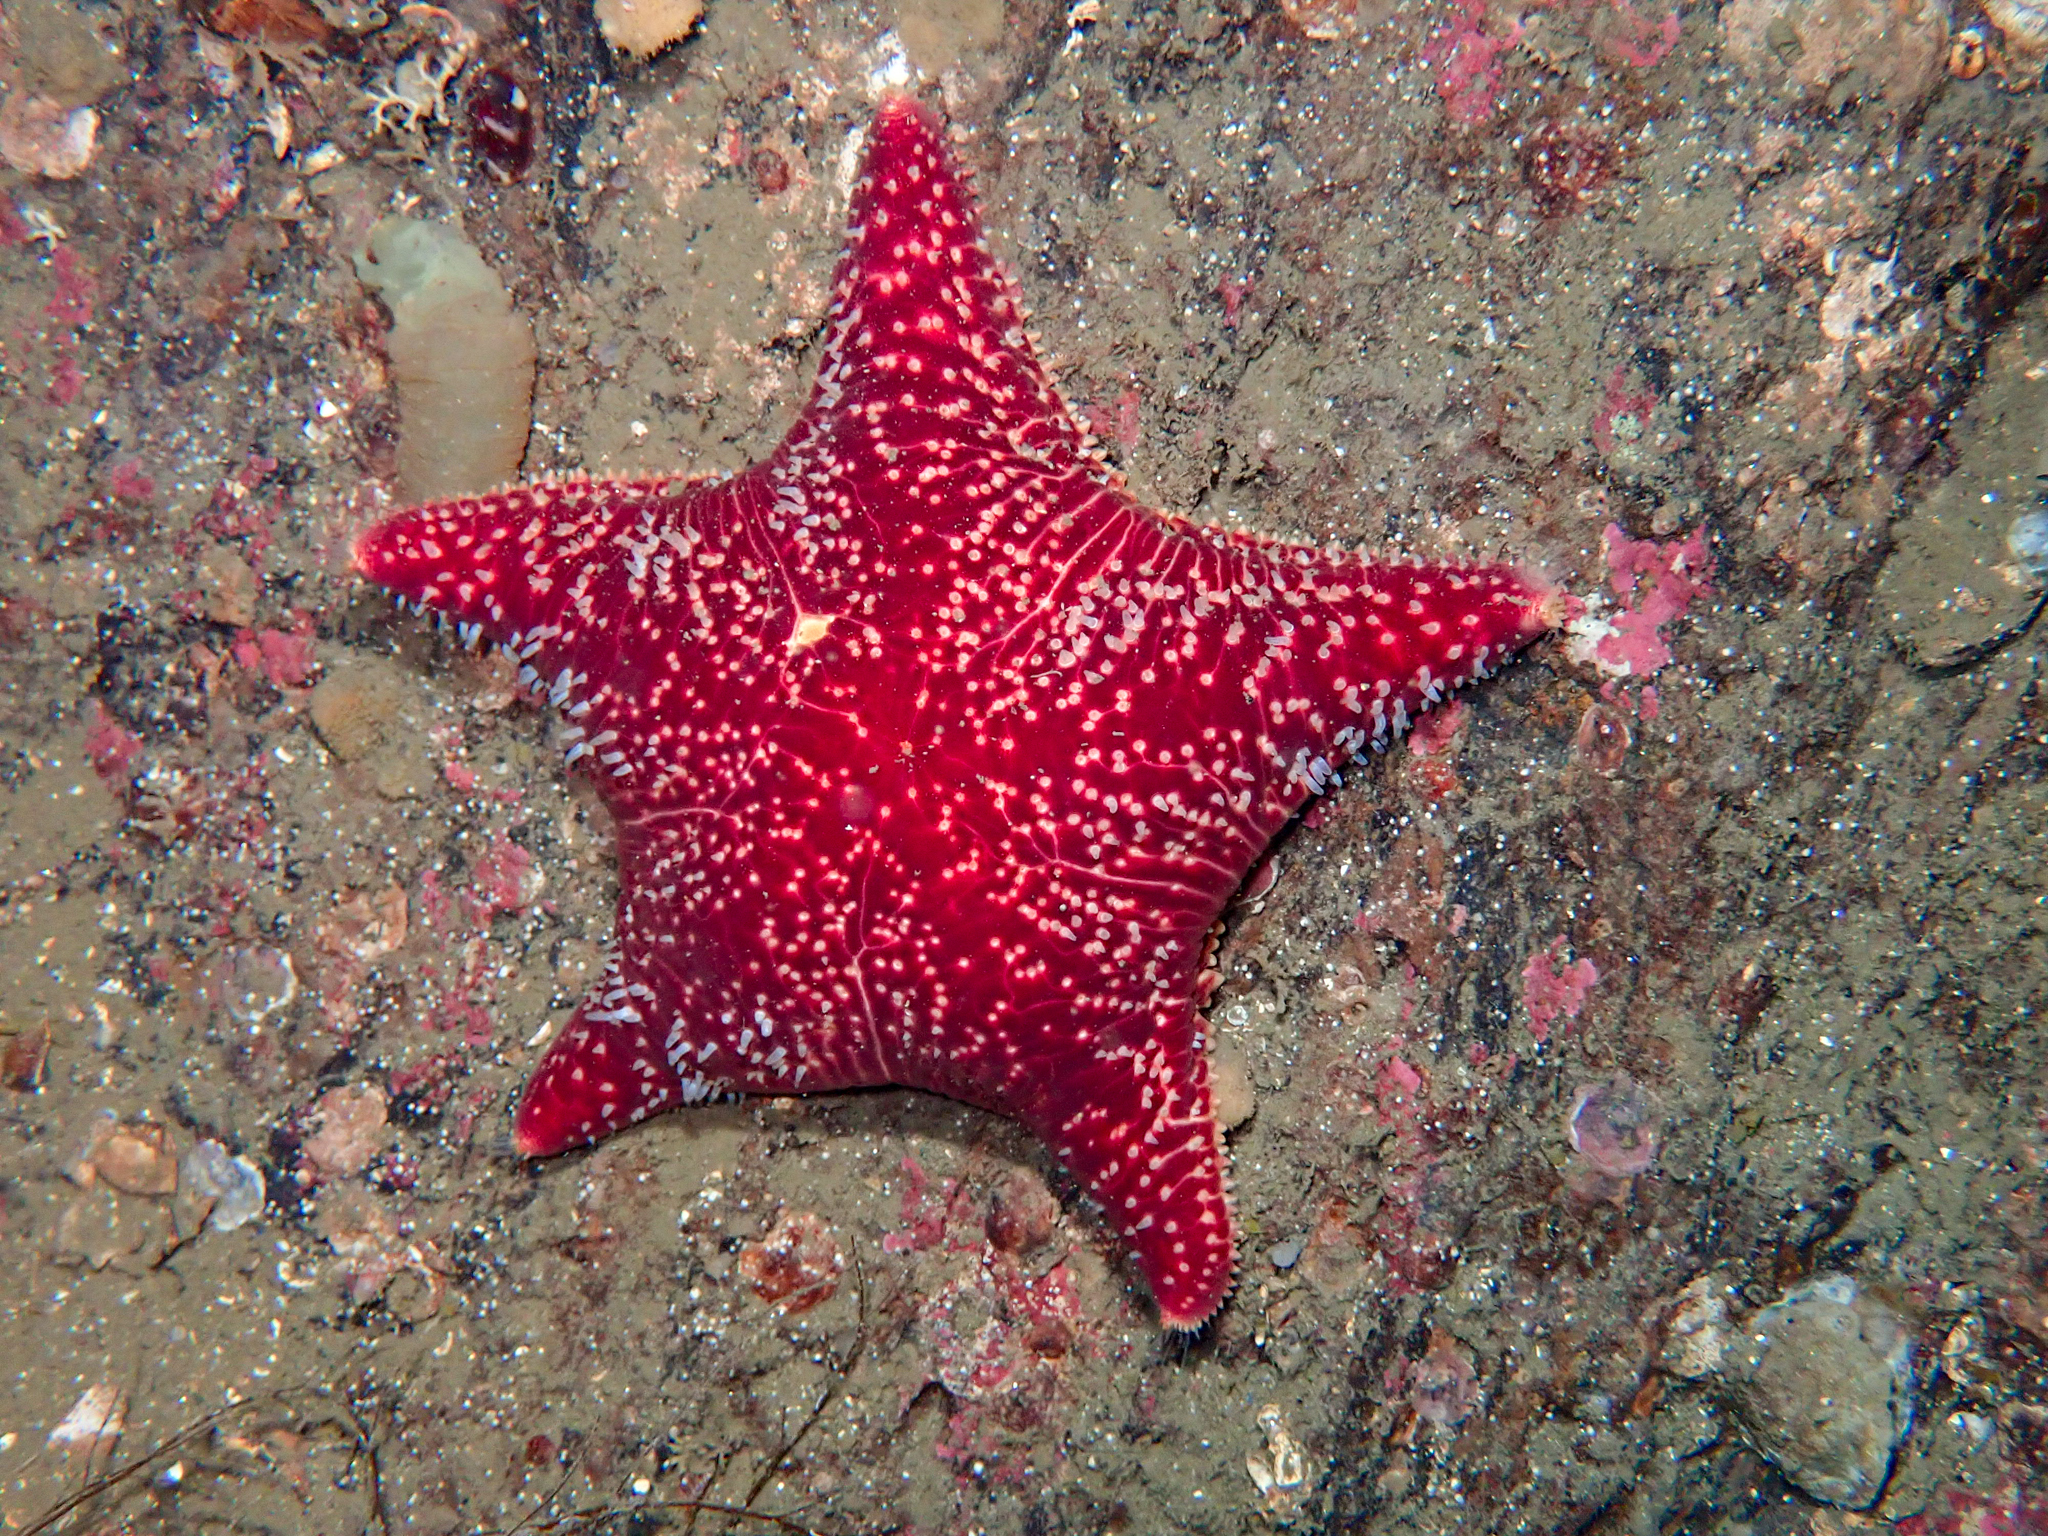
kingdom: Animalia
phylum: Echinodermata
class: Asteroidea
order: Valvatida
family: Poraniidae
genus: Porania
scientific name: Porania pulvillus
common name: Red cushion stat
